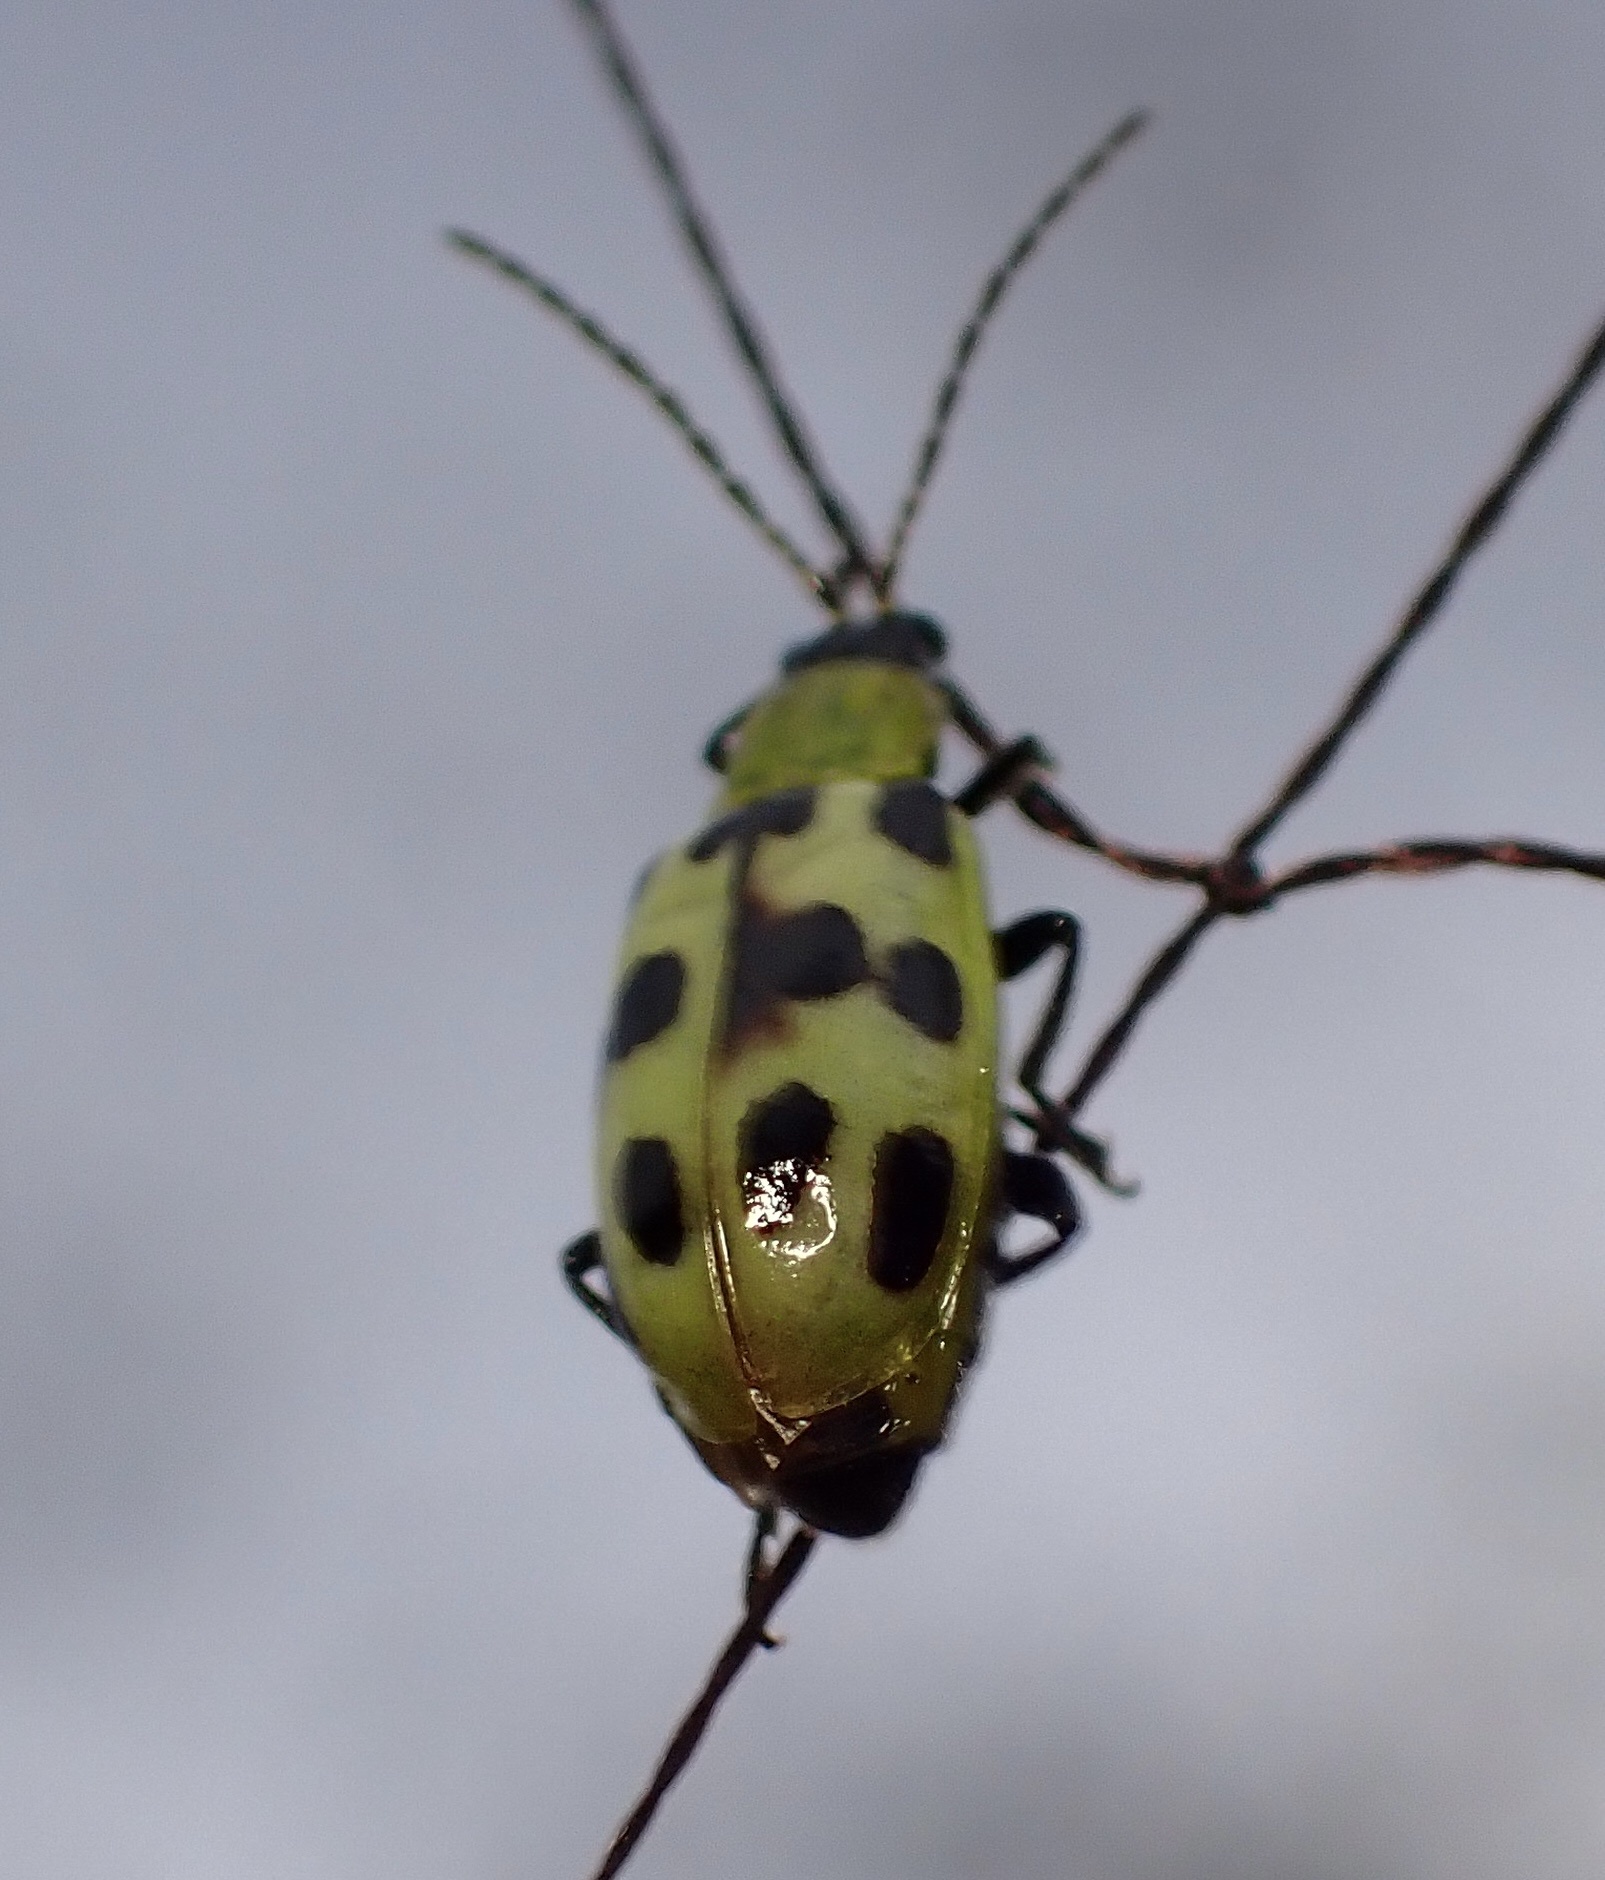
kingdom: Animalia
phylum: Arthropoda
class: Insecta
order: Coleoptera
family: Chrysomelidae
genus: Diabrotica
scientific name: Diabrotica undecimpunctata
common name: Spotted cucumber beetle
